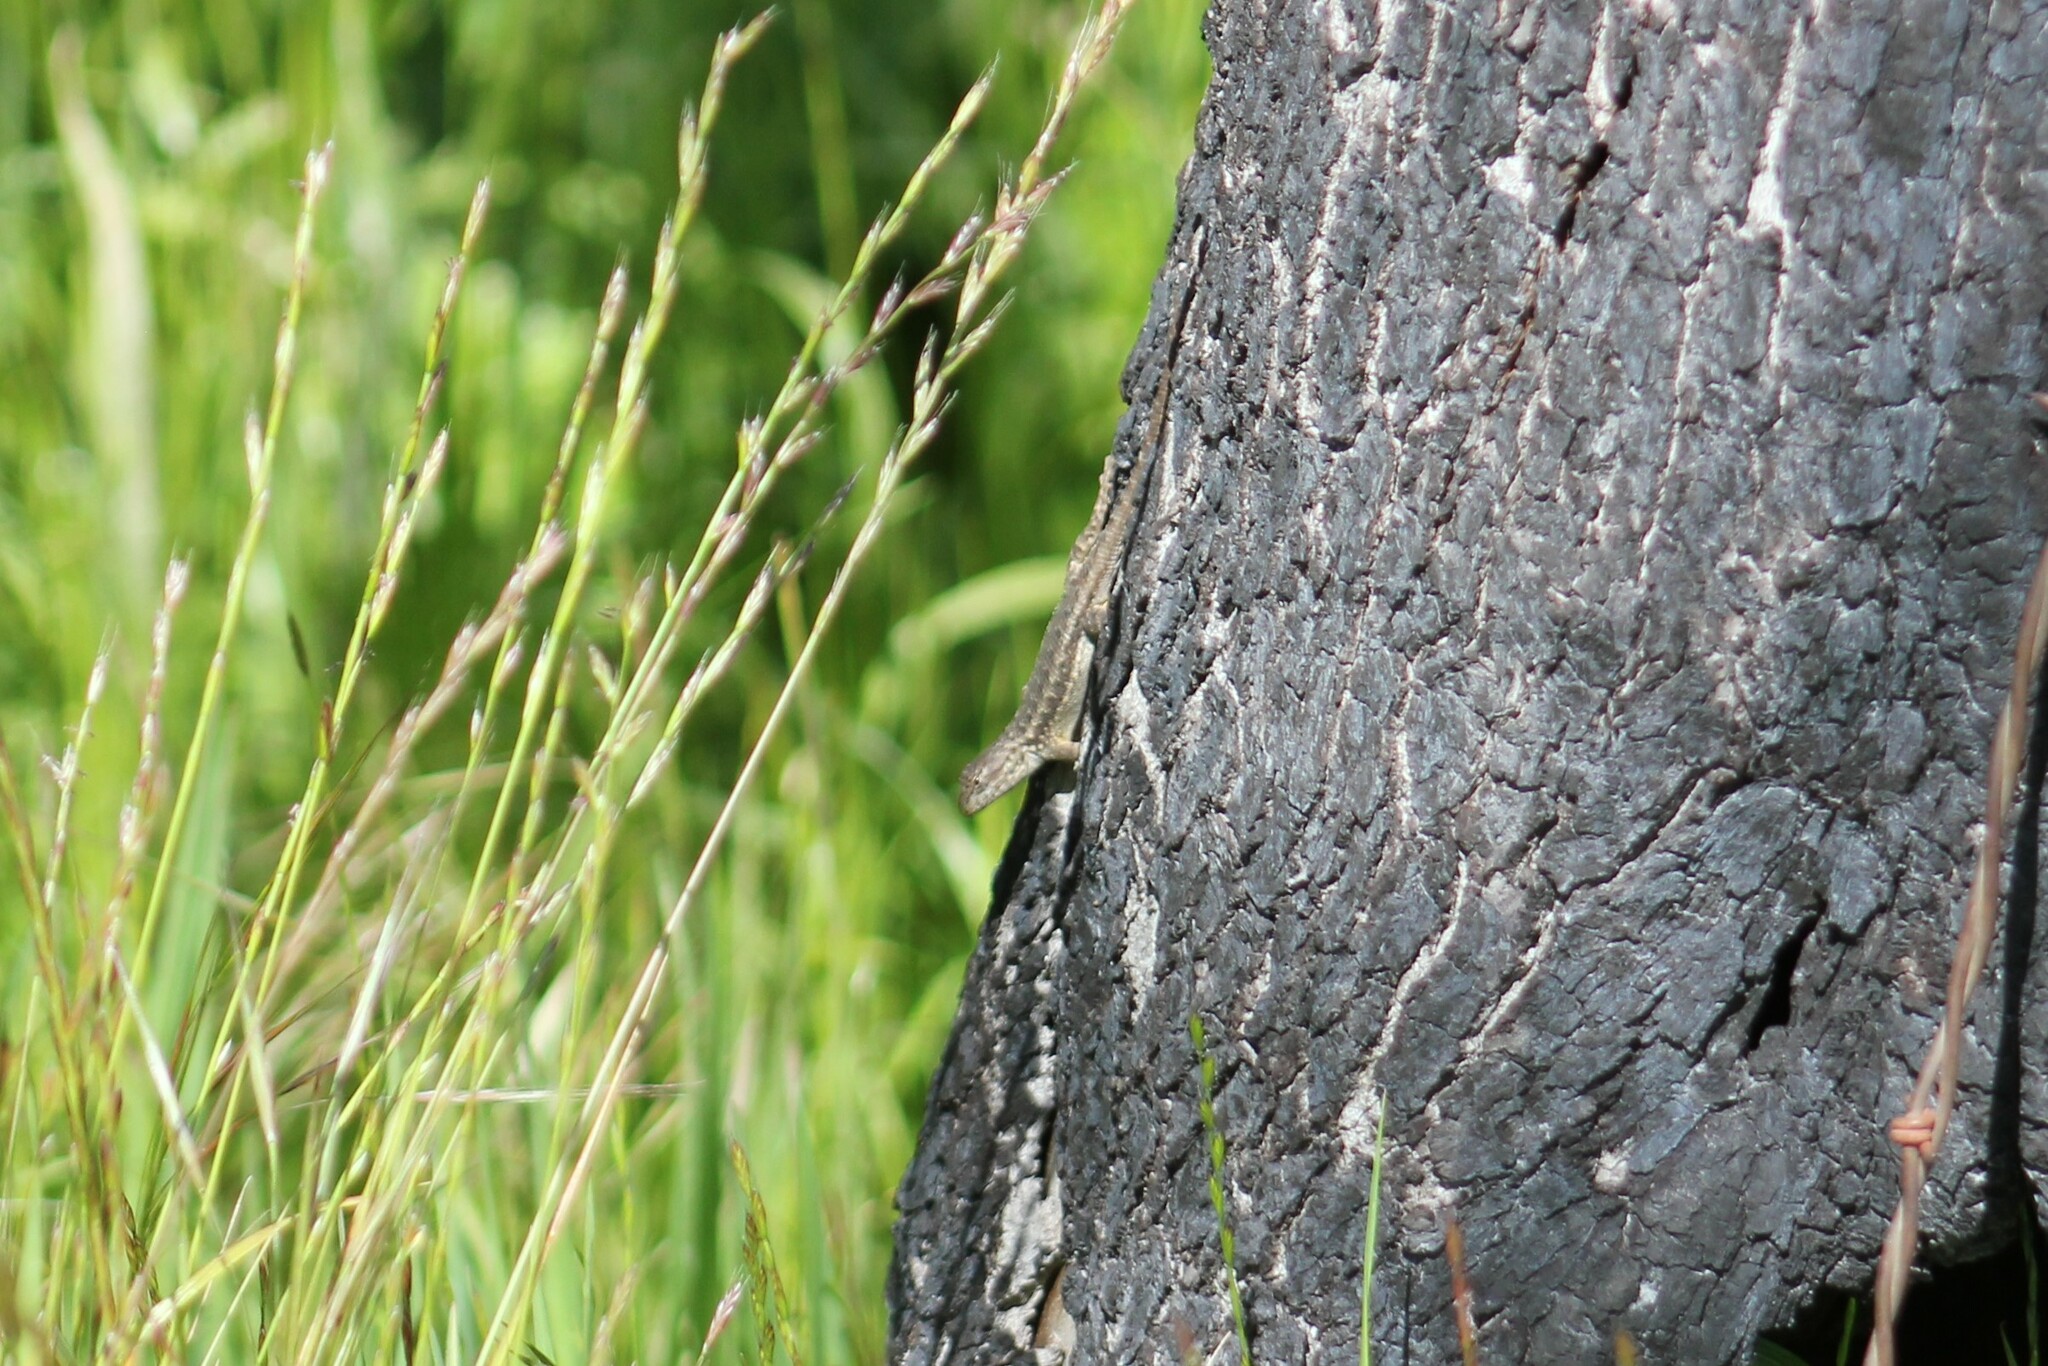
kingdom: Animalia
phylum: Chordata
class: Squamata
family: Phrynosomatidae
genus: Sceloporus
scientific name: Sceloporus occidentalis
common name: Western fence lizard
